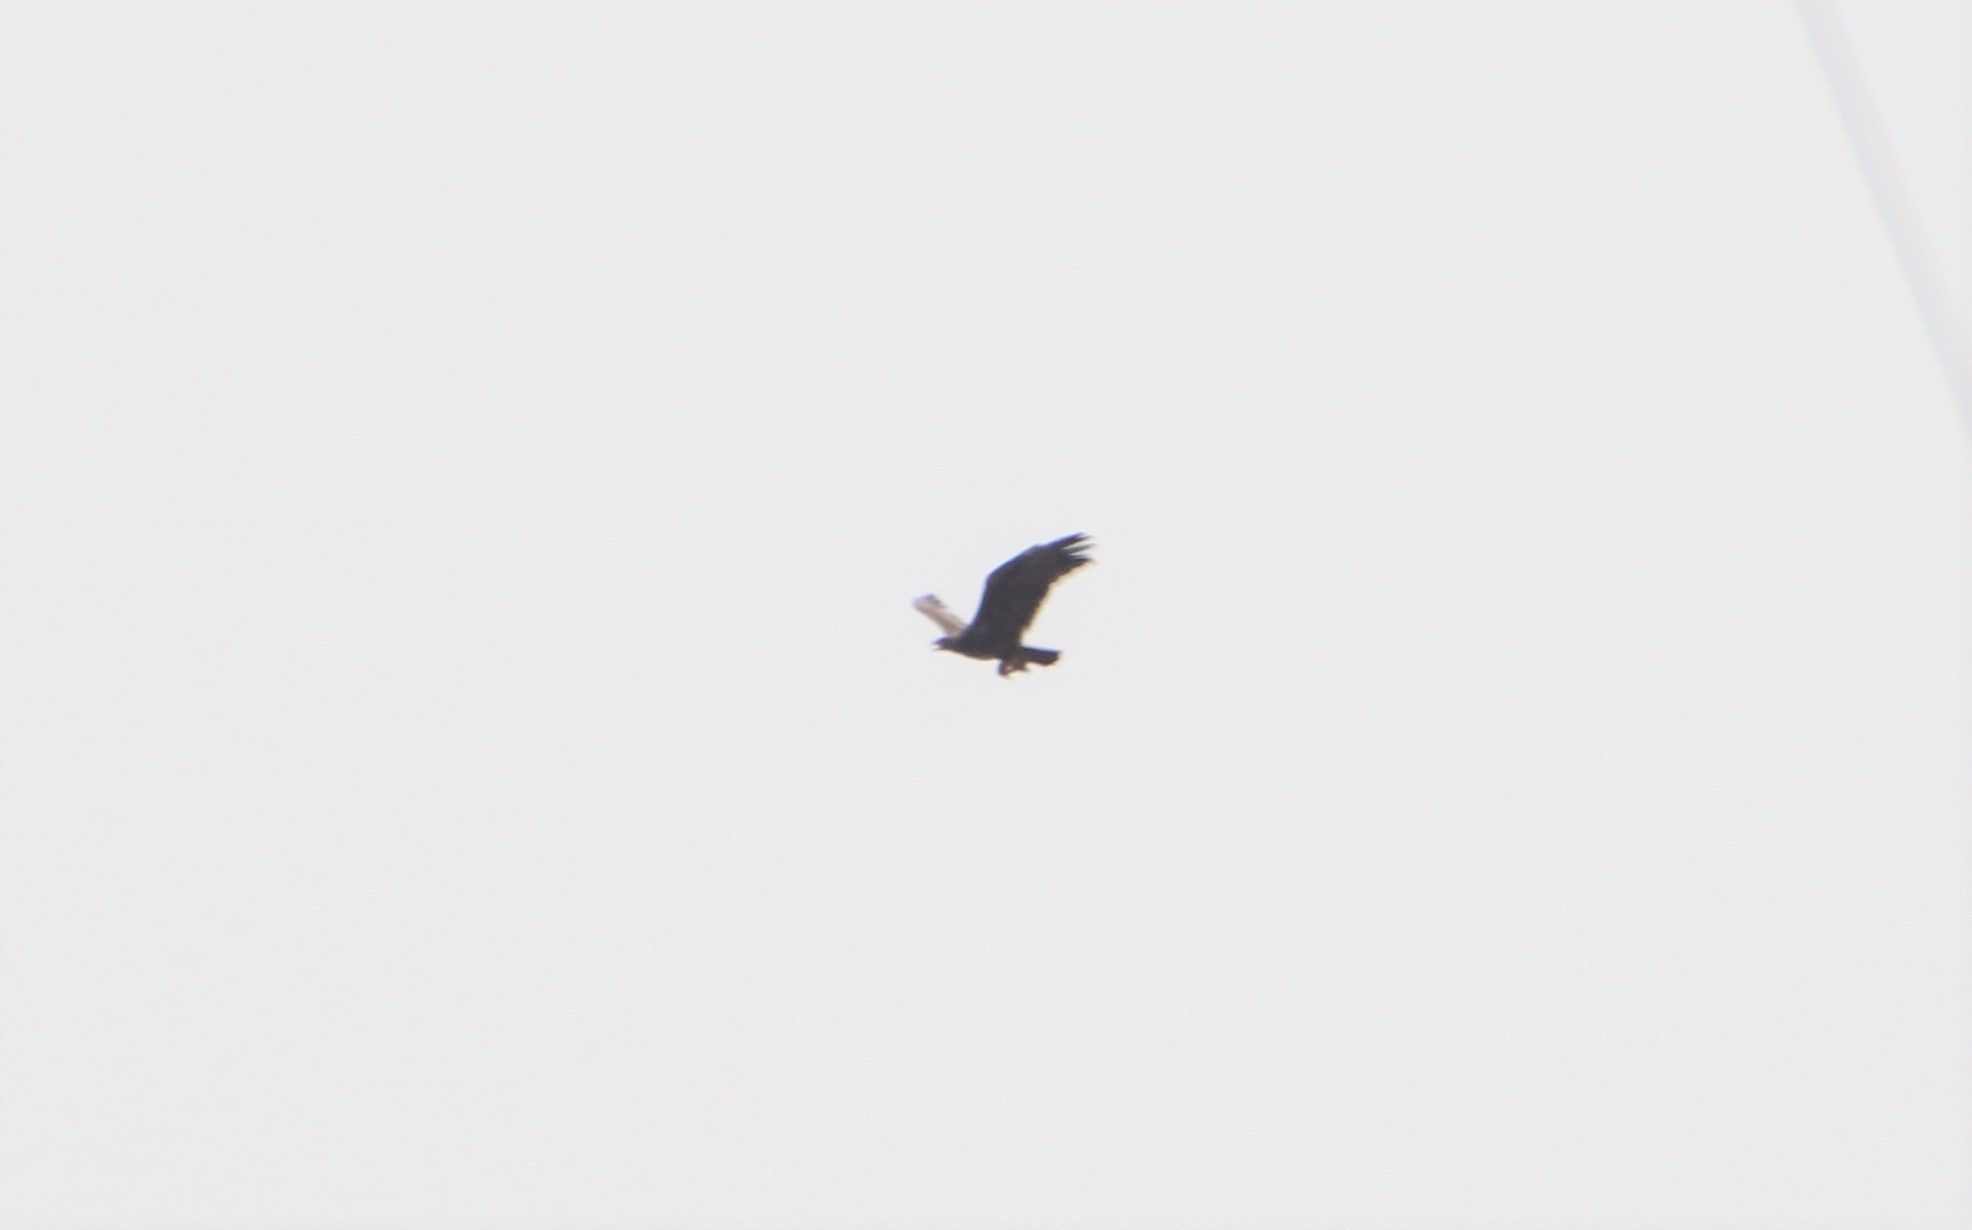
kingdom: Animalia
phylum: Chordata
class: Aves
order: Accipitriformes
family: Accipitridae
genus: Aquila
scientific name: Aquila chrysaetos
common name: Golden eagle
